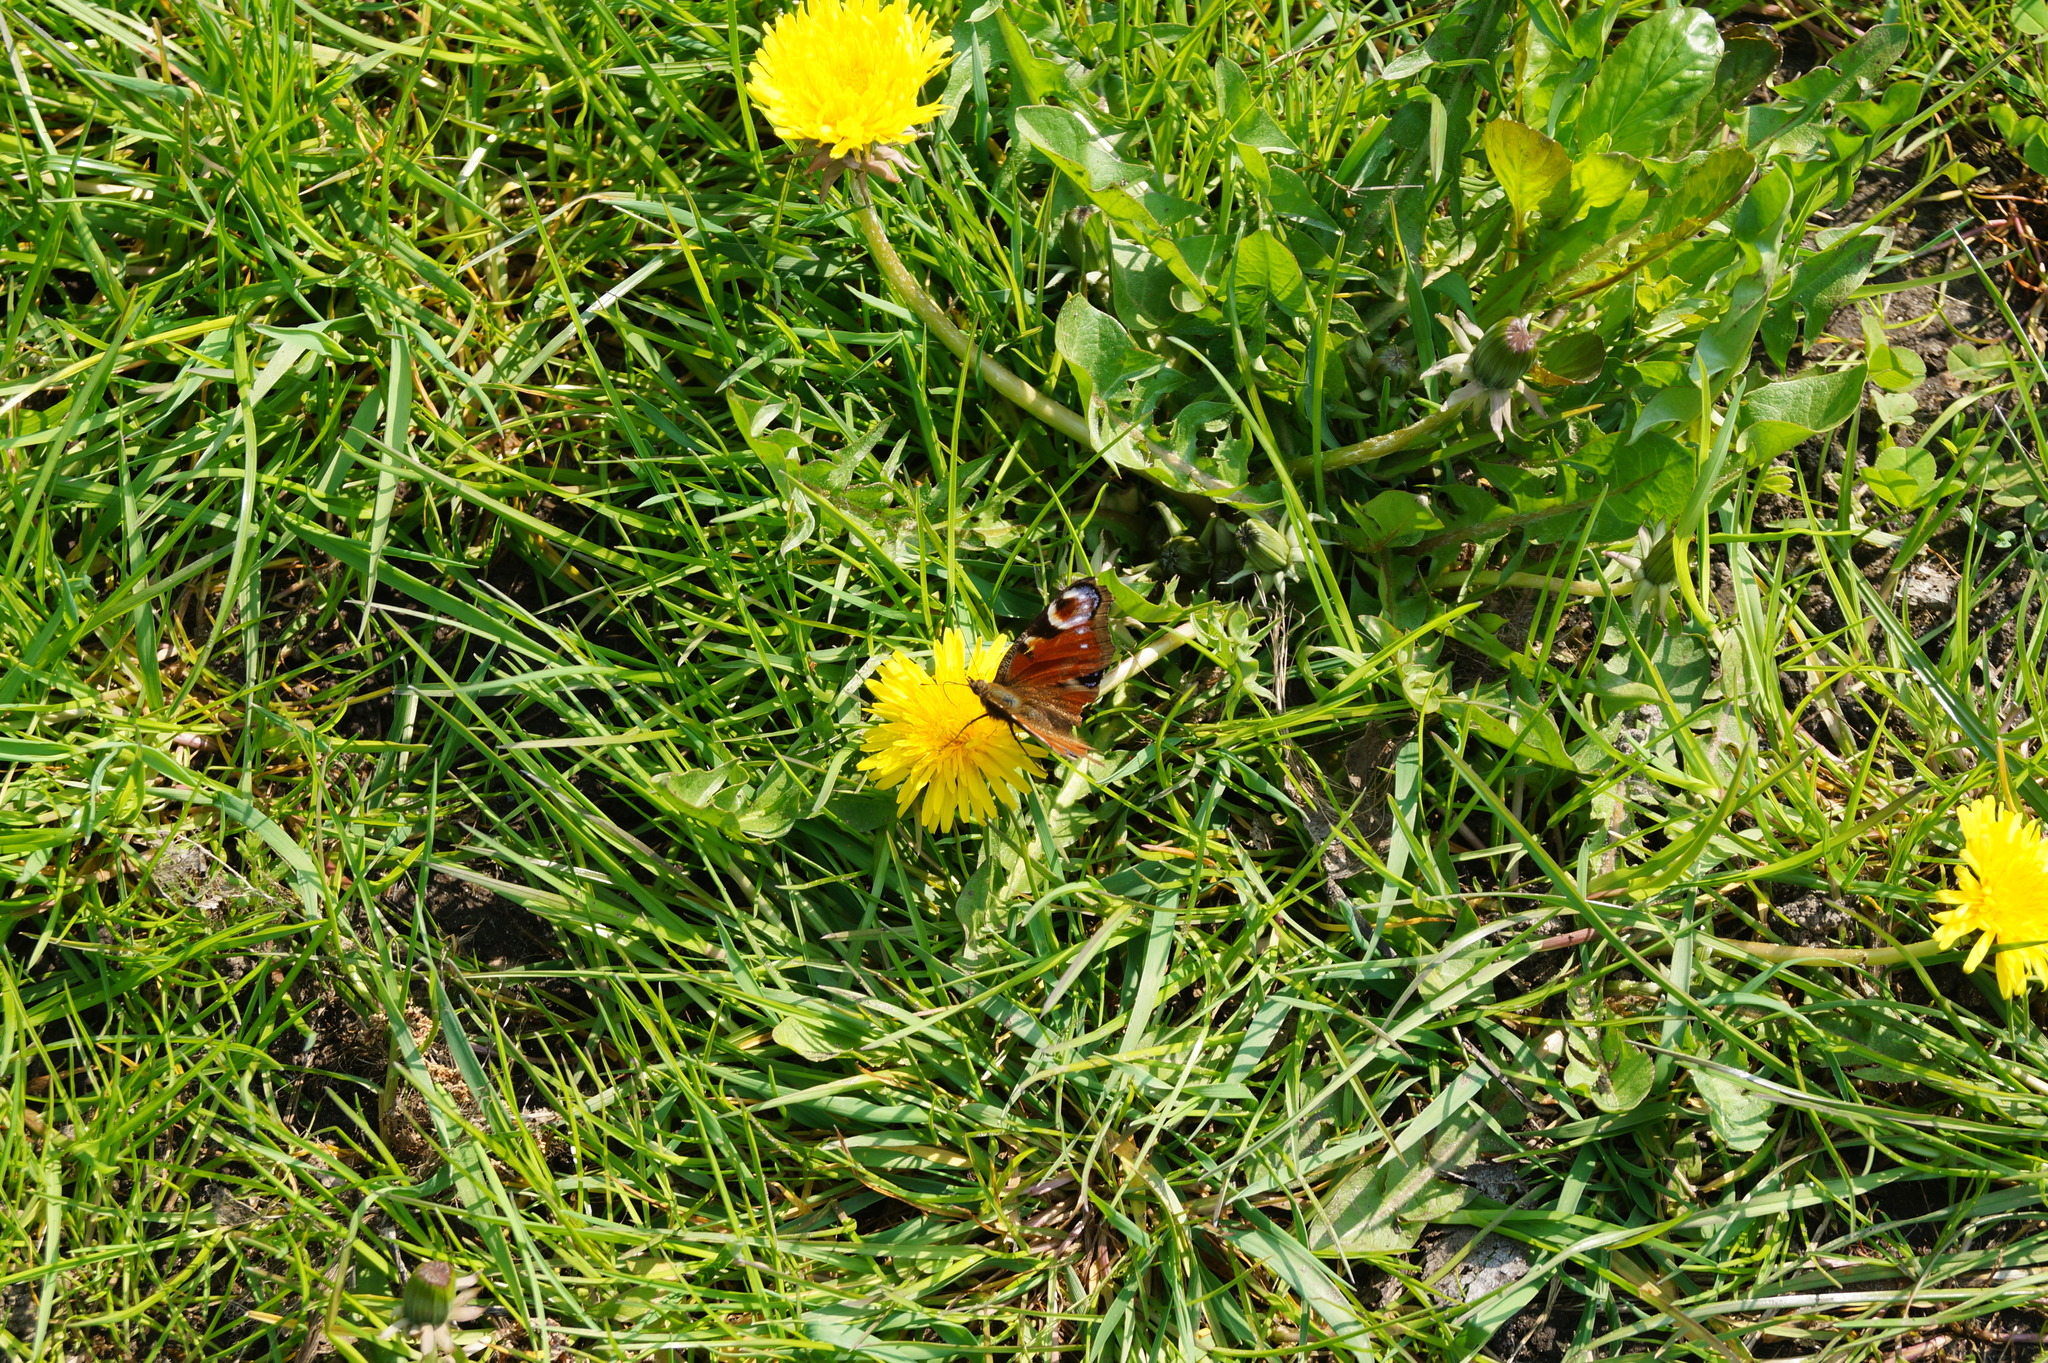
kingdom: Animalia
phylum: Arthropoda
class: Insecta
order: Lepidoptera
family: Nymphalidae
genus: Aglais
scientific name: Aglais io
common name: Peacock
